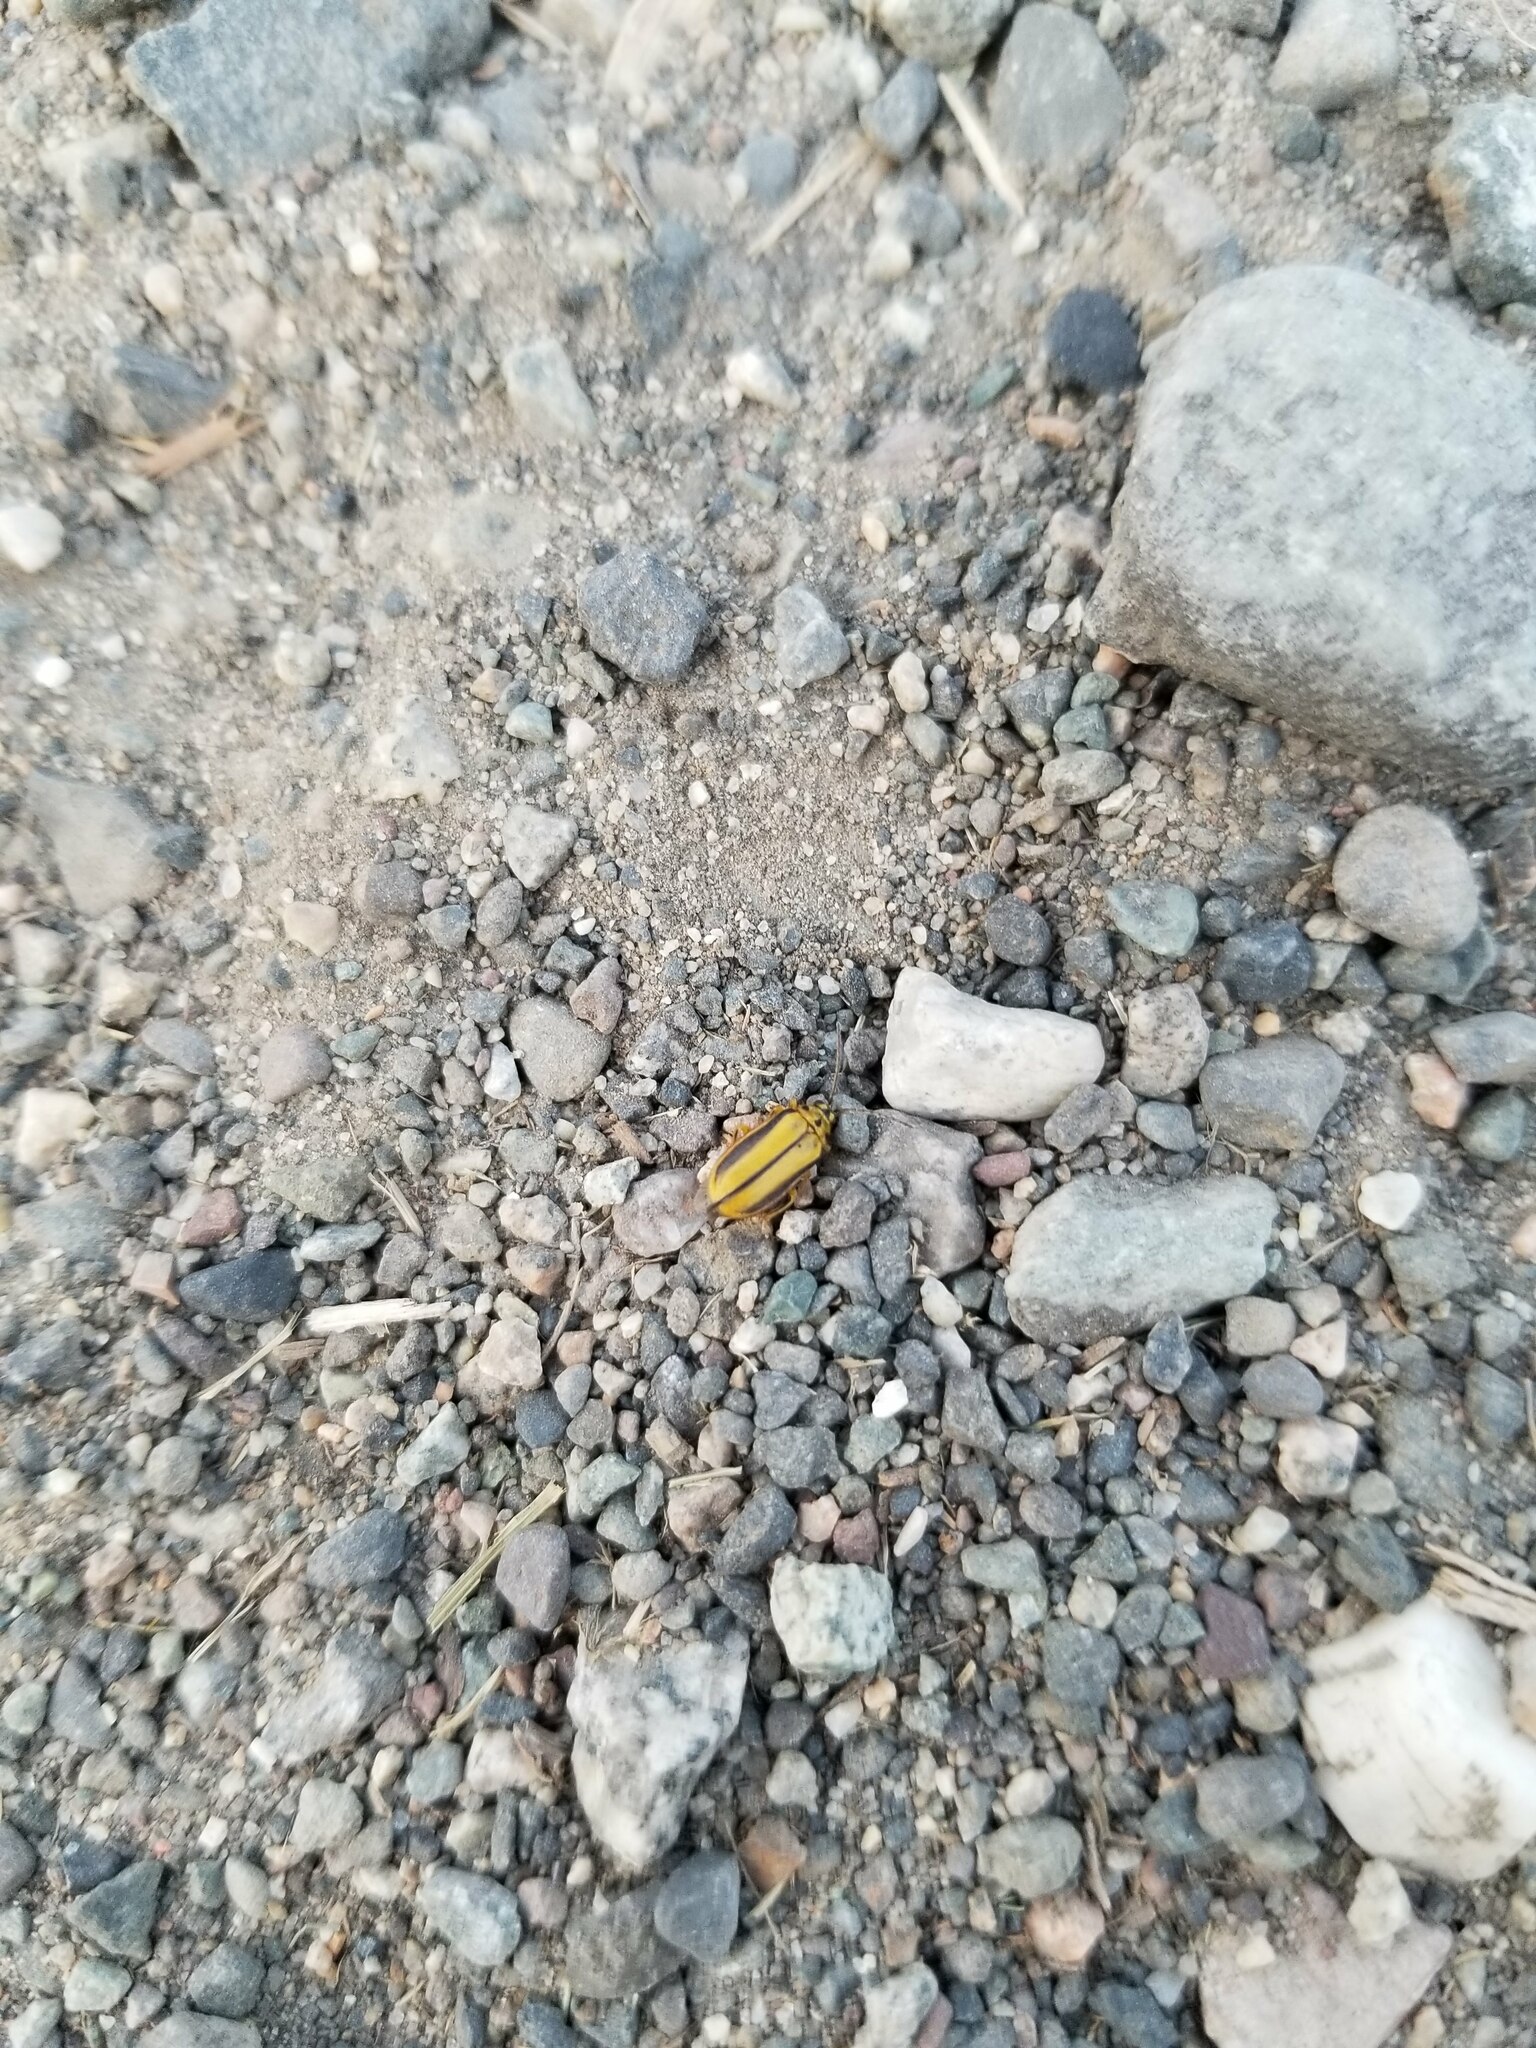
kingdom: Animalia
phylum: Arthropoda
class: Insecta
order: Coleoptera
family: Chrysomelidae
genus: Xanthogaleruca
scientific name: Xanthogaleruca luteola
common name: Elm leaf beetle
